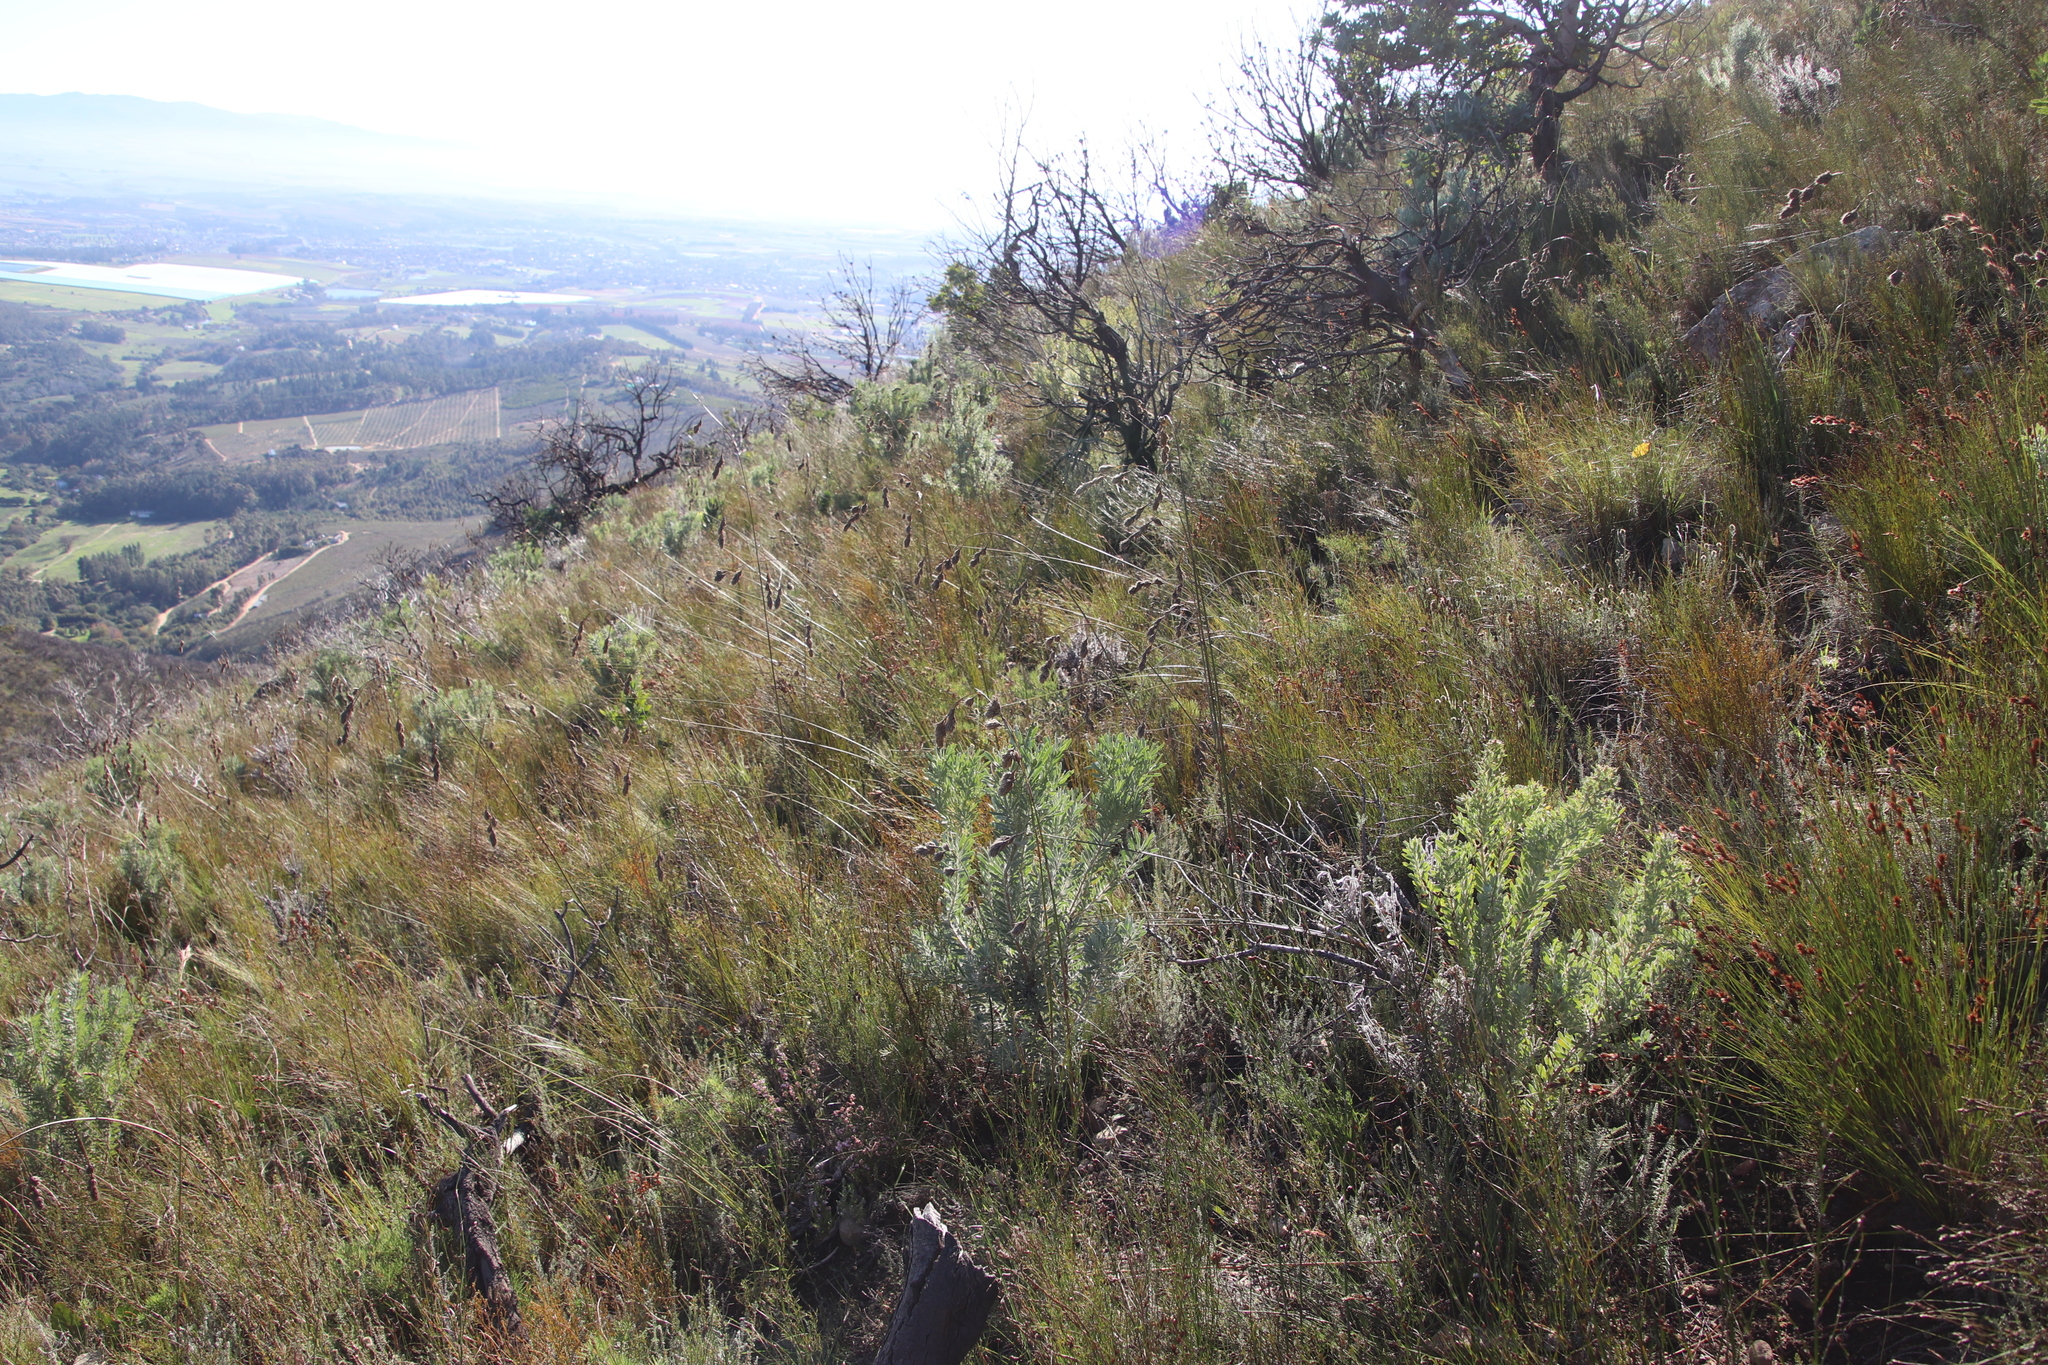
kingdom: Plantae
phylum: Tracheophyta
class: Magnoliopsida
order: Proteales
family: Proteaceae
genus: Leucadendron
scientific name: Leucadendron rubrum
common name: Spinning top
